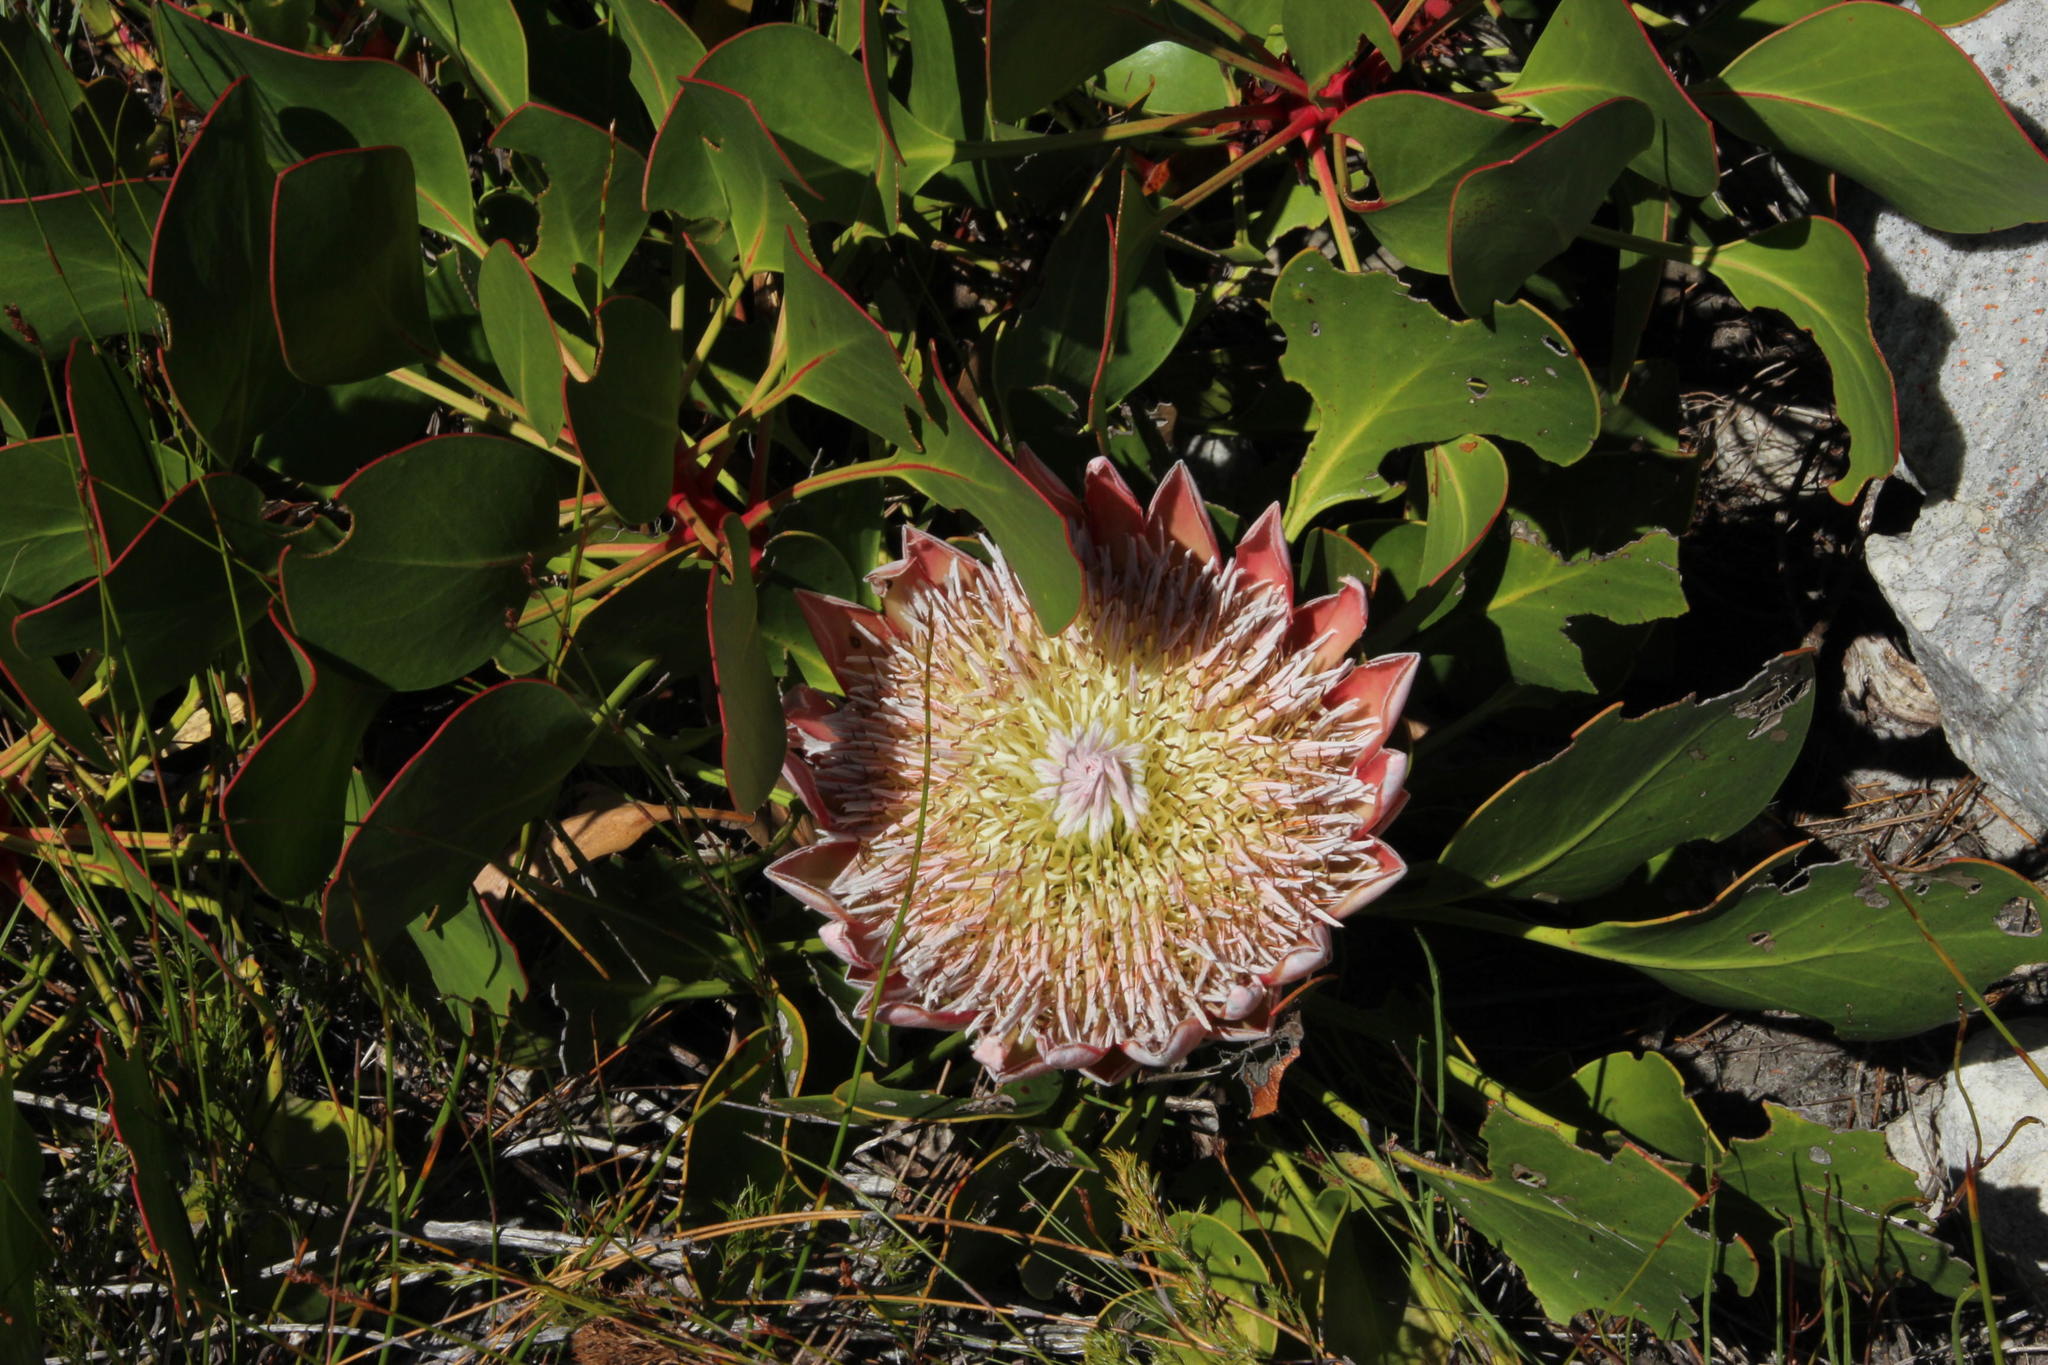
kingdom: Plantae
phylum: Tracheophyta
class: Magnoliopsida
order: Proteales
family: Proteaceae
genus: Protea
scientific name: Protea cynaroides
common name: King protea
